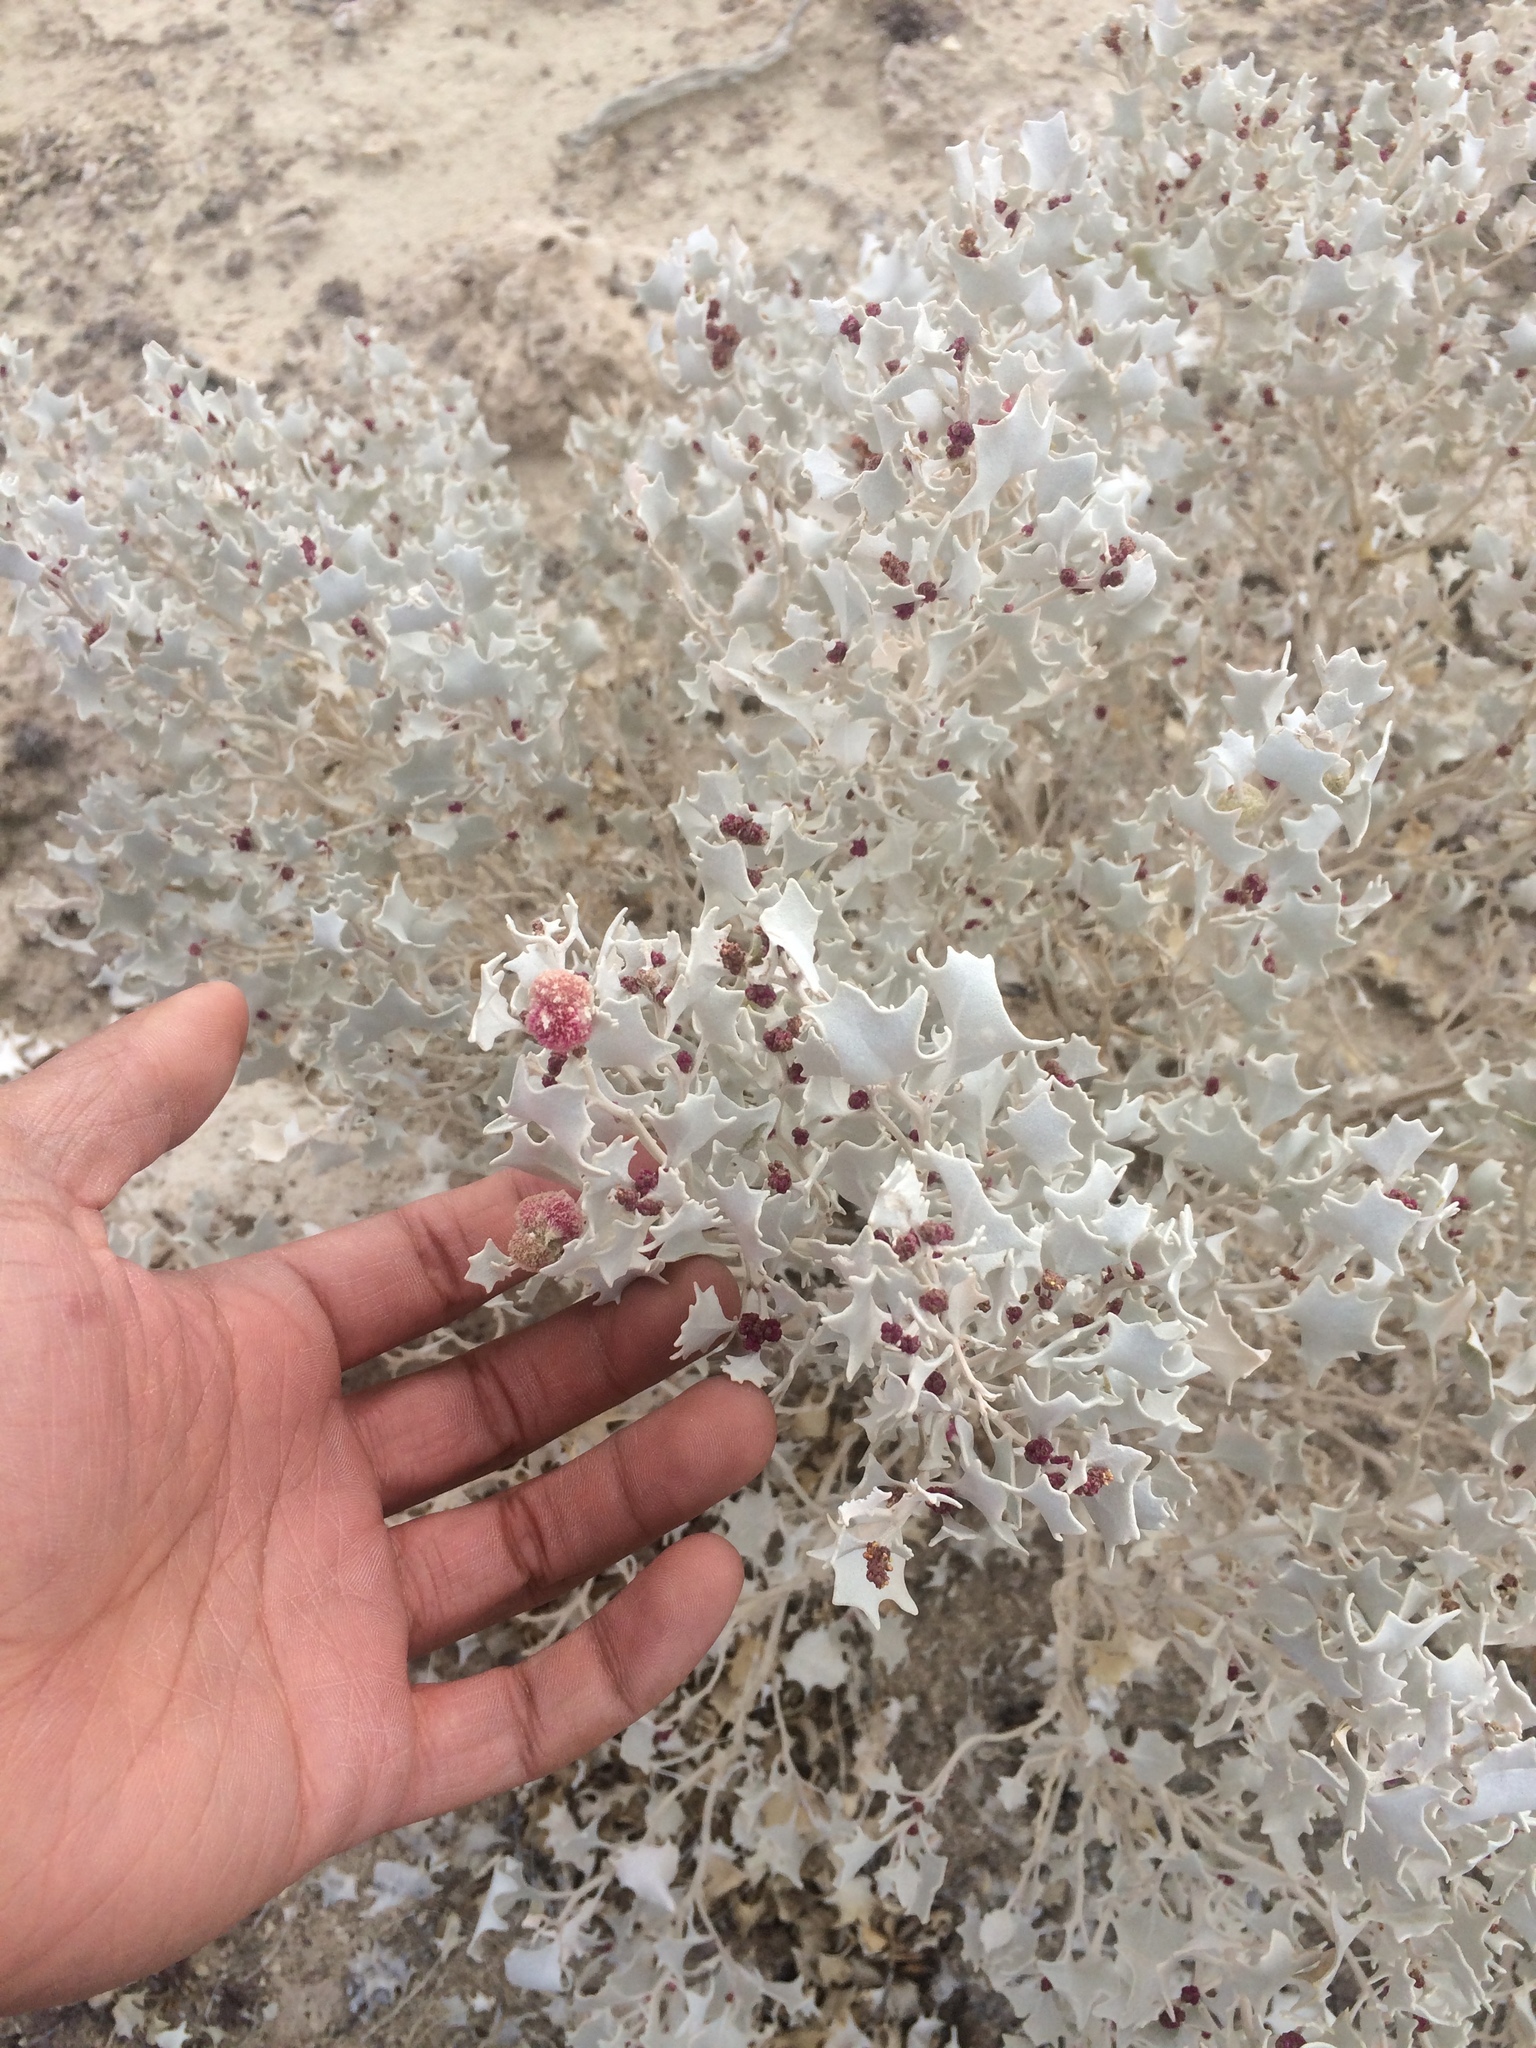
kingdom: Plantae
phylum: Tracheophyta
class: Magnoliopsida
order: Caryophyllales
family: Amaranthaceae
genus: Atriplex
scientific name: Atriplex hymenelytra
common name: Desert-holly
